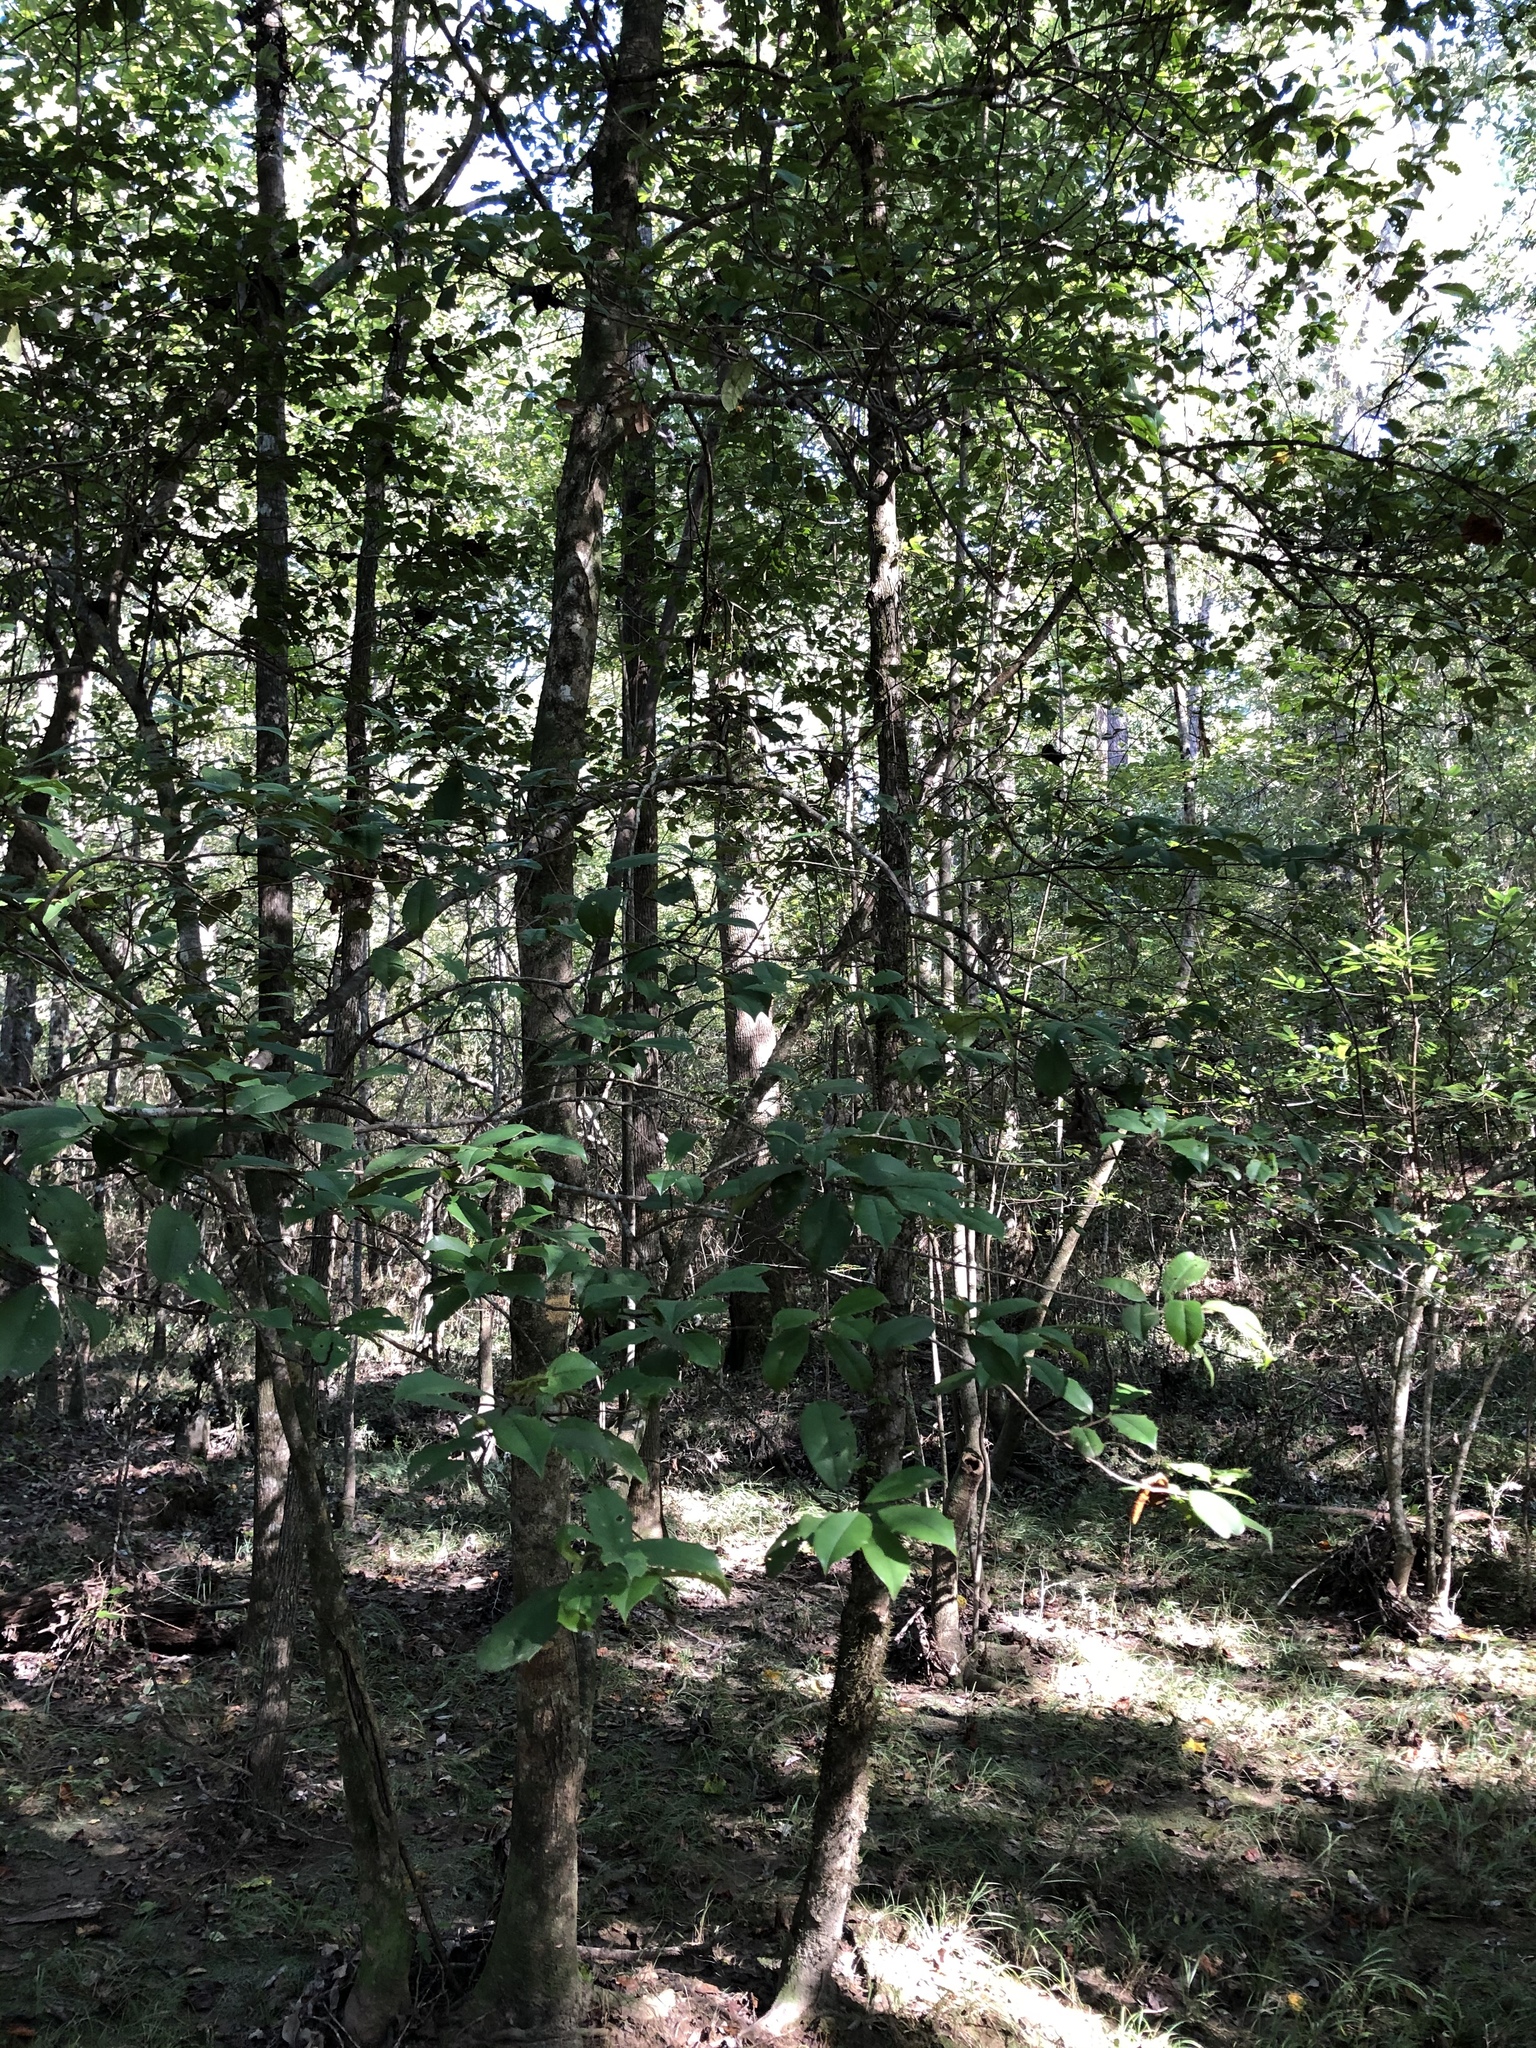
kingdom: Plantae
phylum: Tracheophyta
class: Magnoliopsida
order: Aquifoliales
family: Aquifoliaceae
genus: Ilex
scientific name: Ilex opaca
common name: American holly
